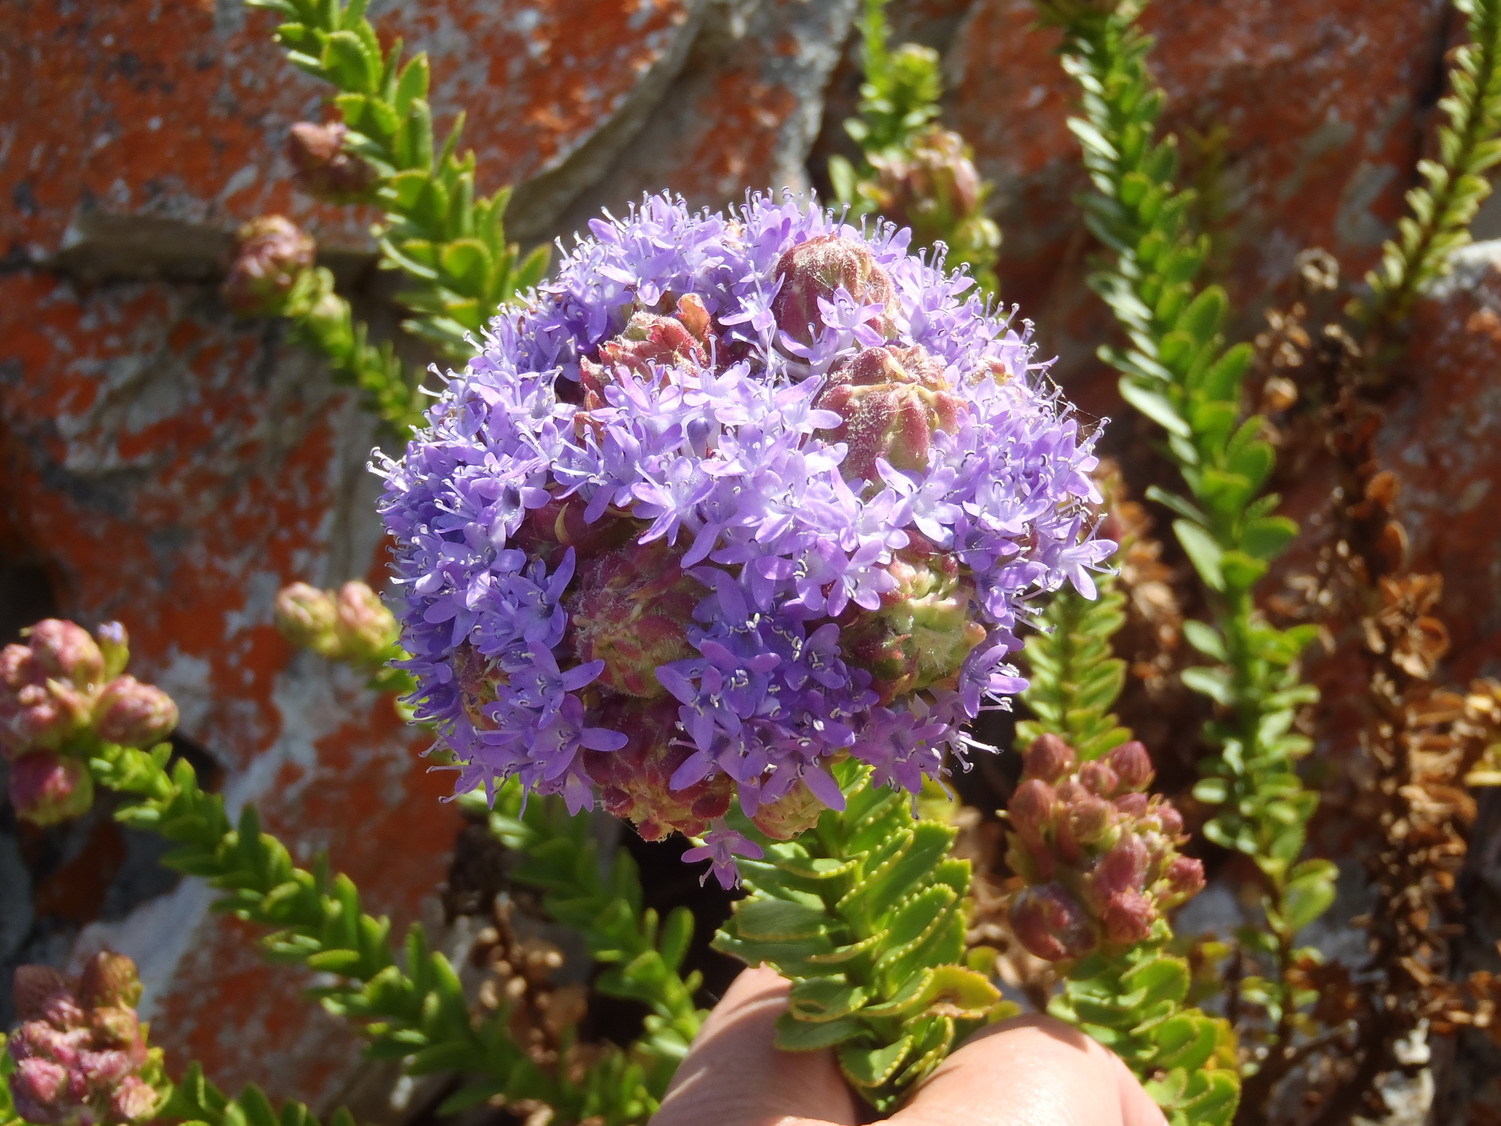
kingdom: Plantae
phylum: Tracheophyta
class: Magnoliopsida
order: Lamiales
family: Scrophulariaceae
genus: Pseudoselago
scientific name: Pseudoselago pulchra
